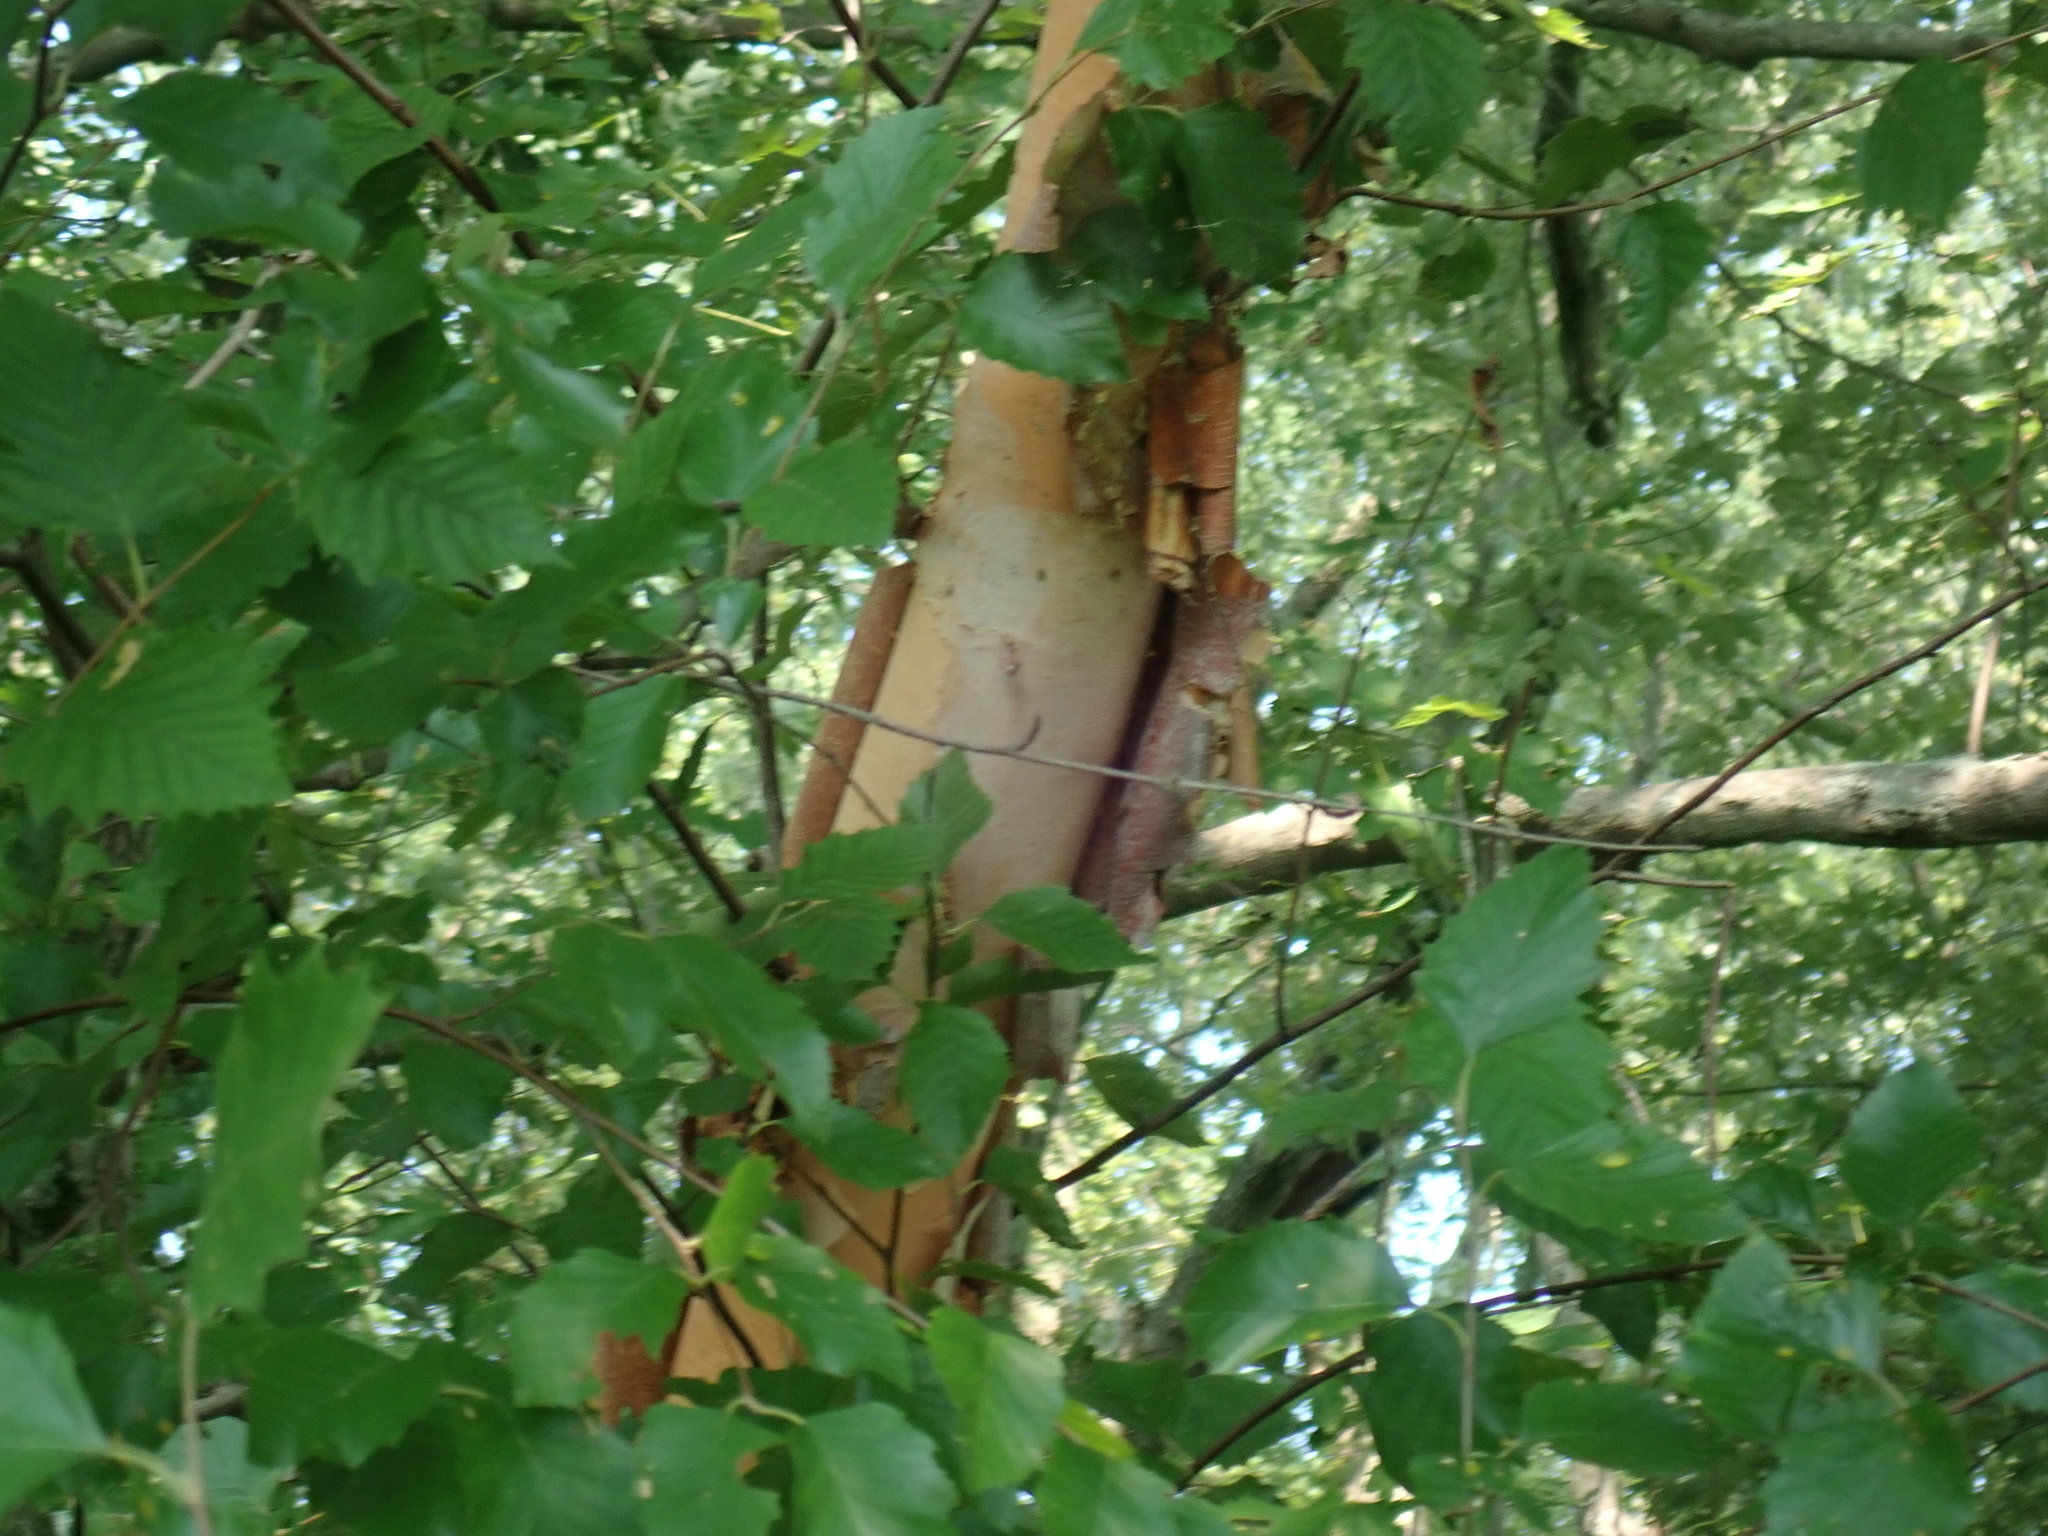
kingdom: Plantae
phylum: Tracheophyta
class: Magnoliopsida
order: Fagales
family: Betulaceae
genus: Betula
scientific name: Betula nigra
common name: Black birch
